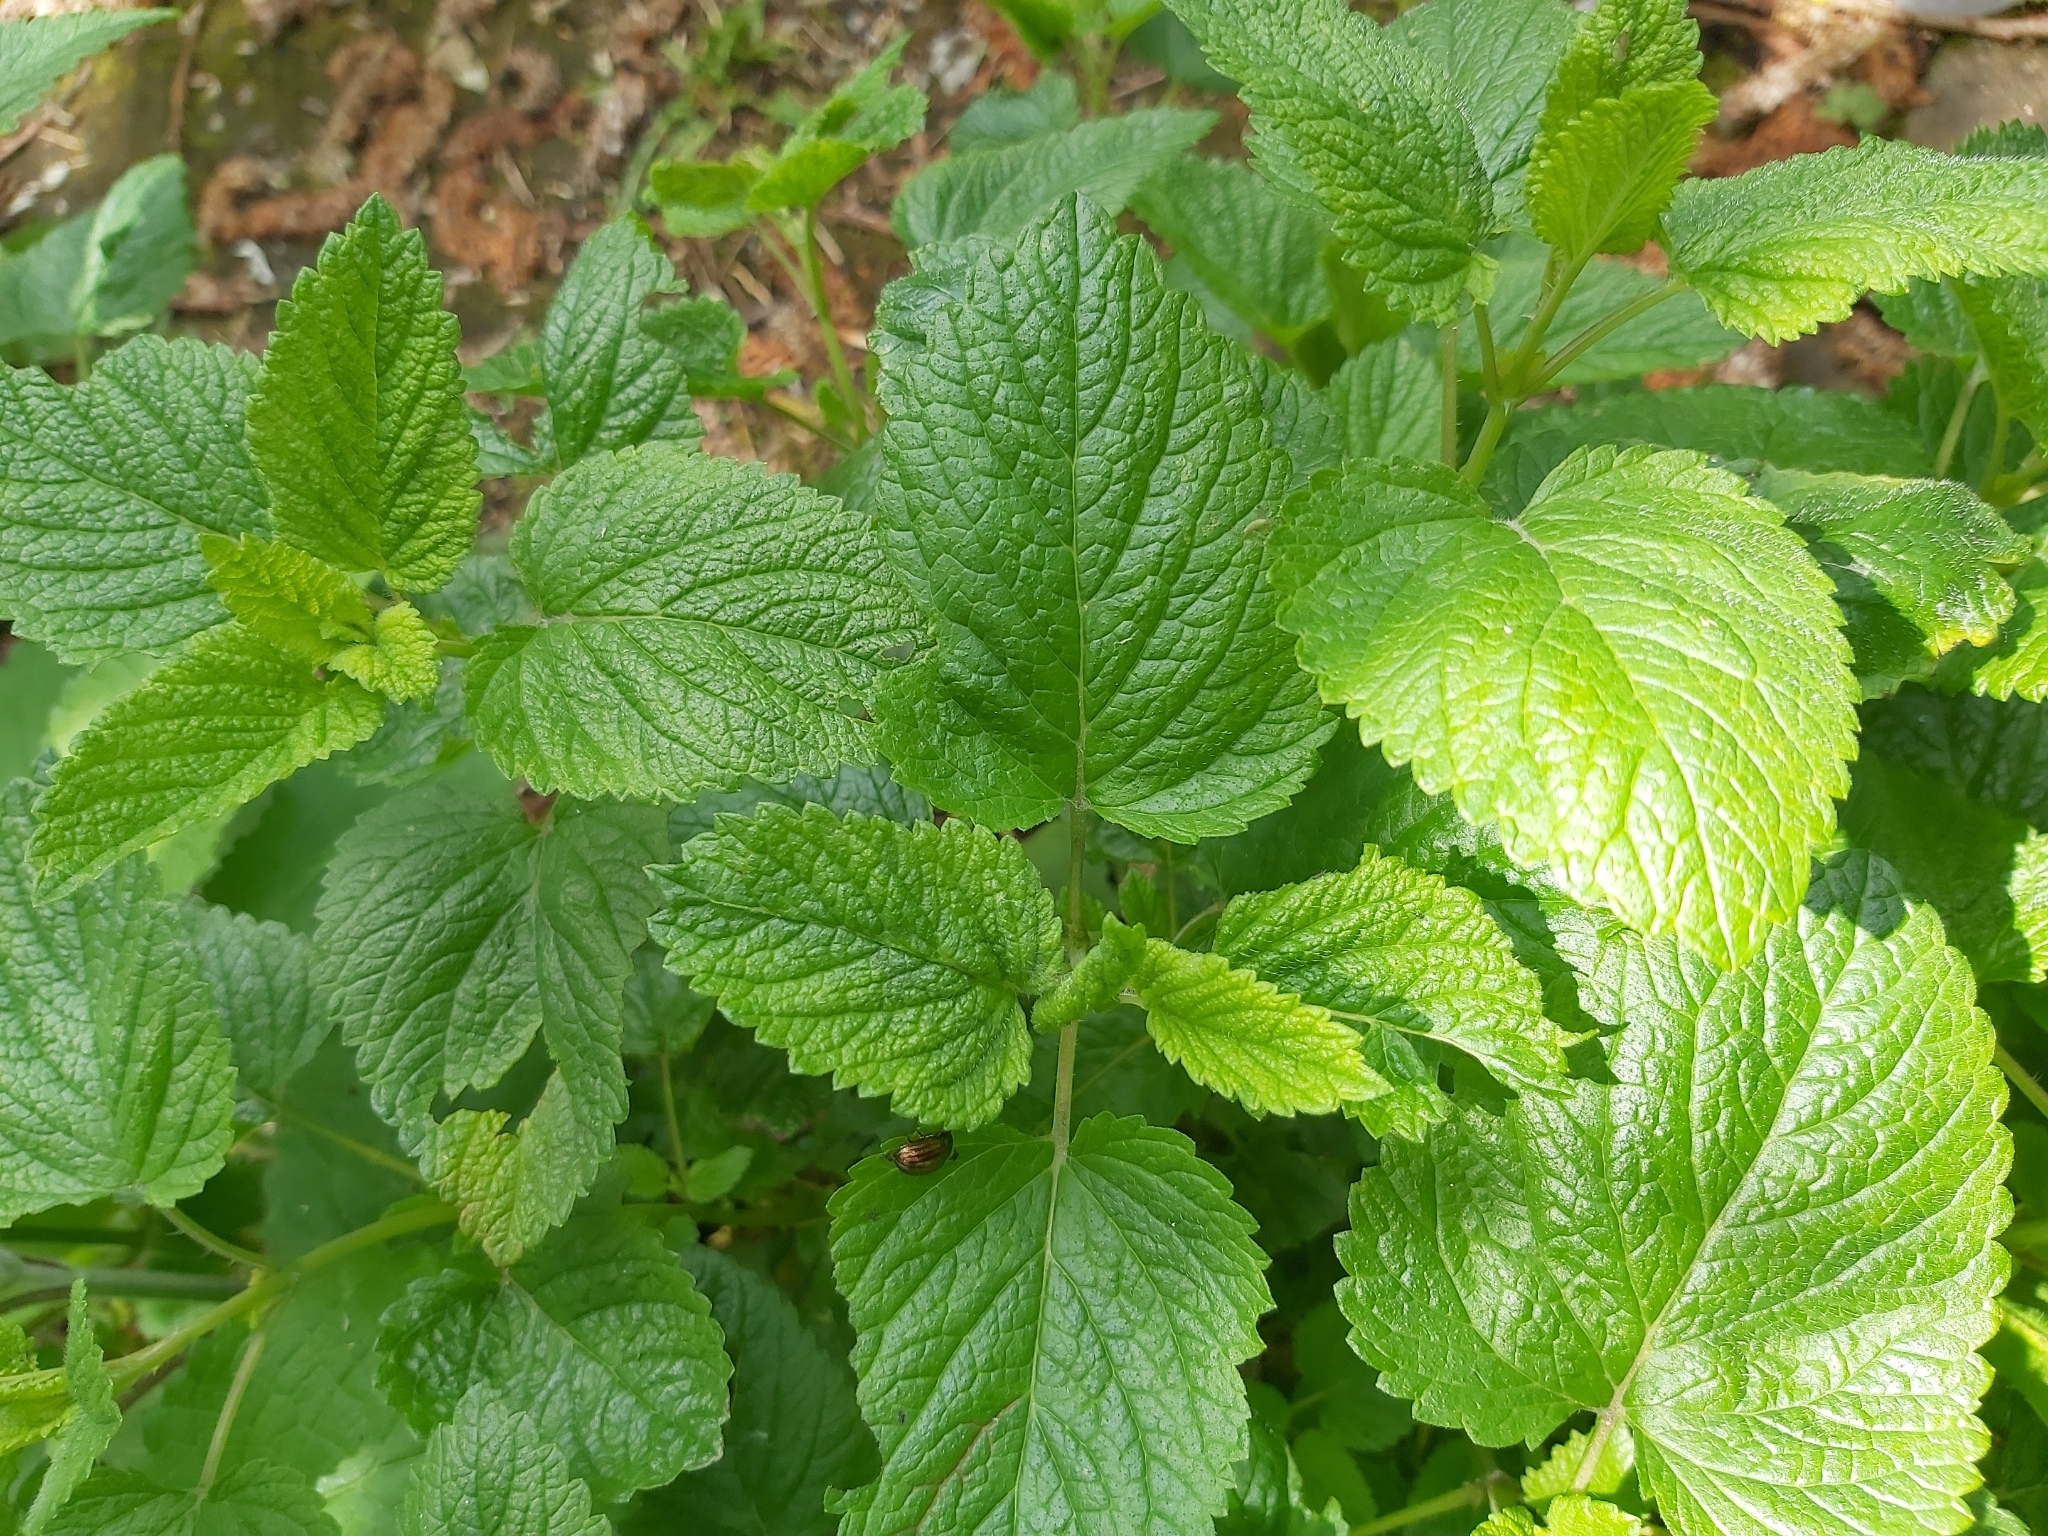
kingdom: Plantae
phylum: Tracheophyta
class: Magnoliopsida
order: Lamiales
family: Lamiaceae
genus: Melissa
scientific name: Melissa officinalis
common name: Balm
